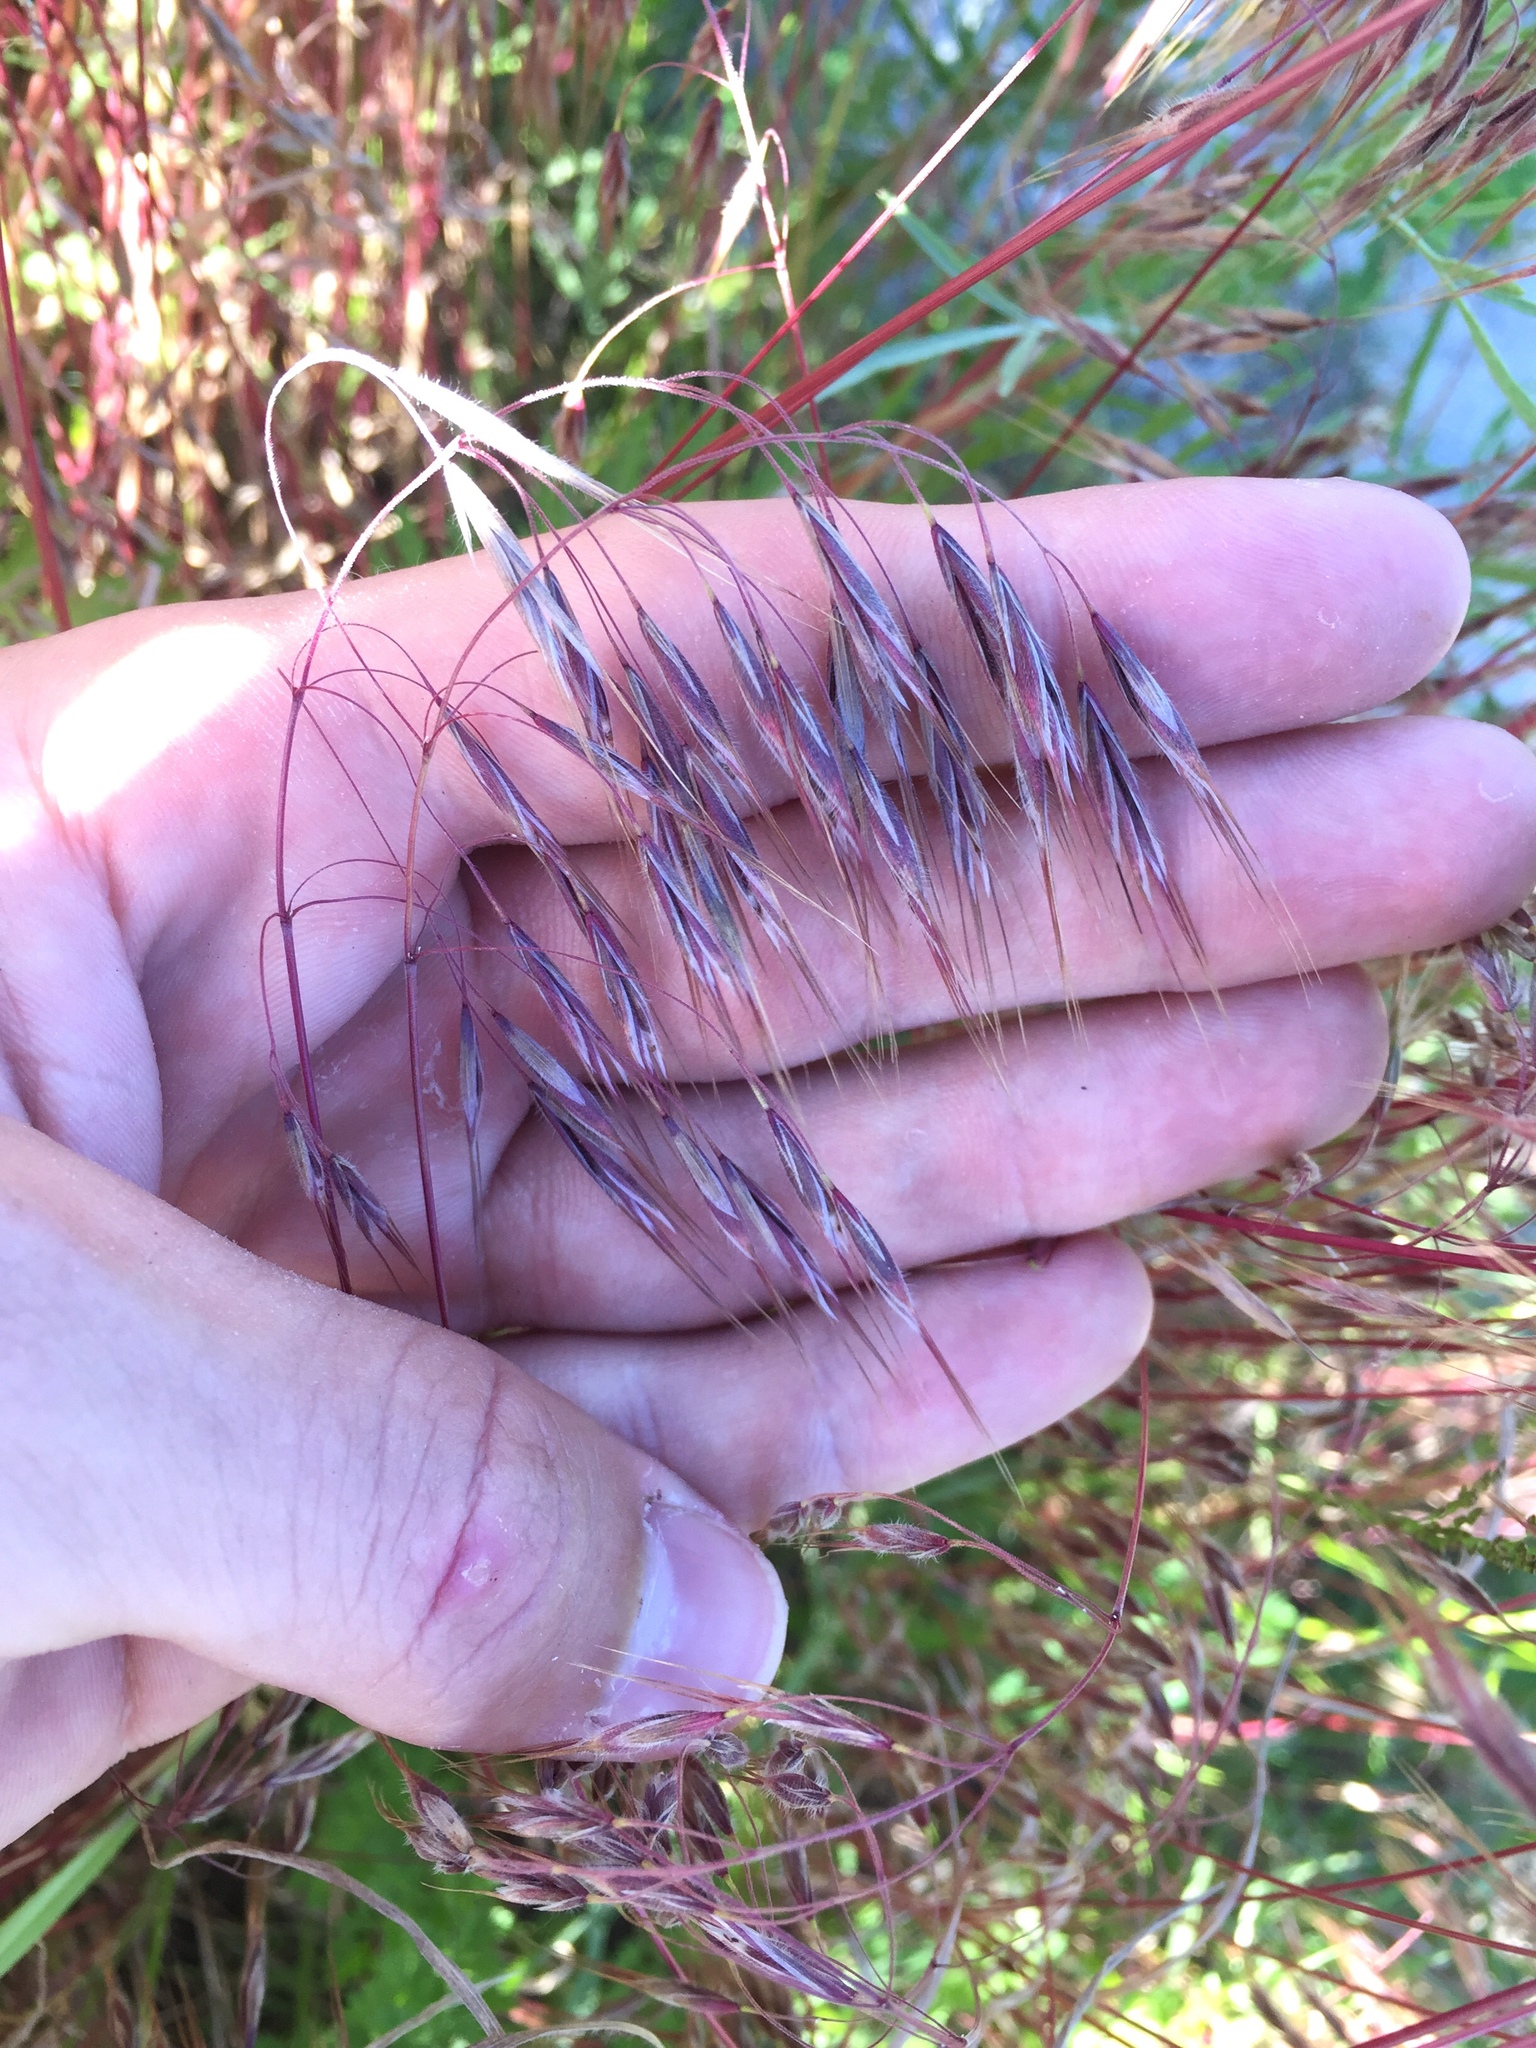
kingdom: Plantae
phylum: Tracheophyta
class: Liliopsida
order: Poales
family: Poaceae
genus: Bromus
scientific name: Bromus tectorum
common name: Cheatgrass
